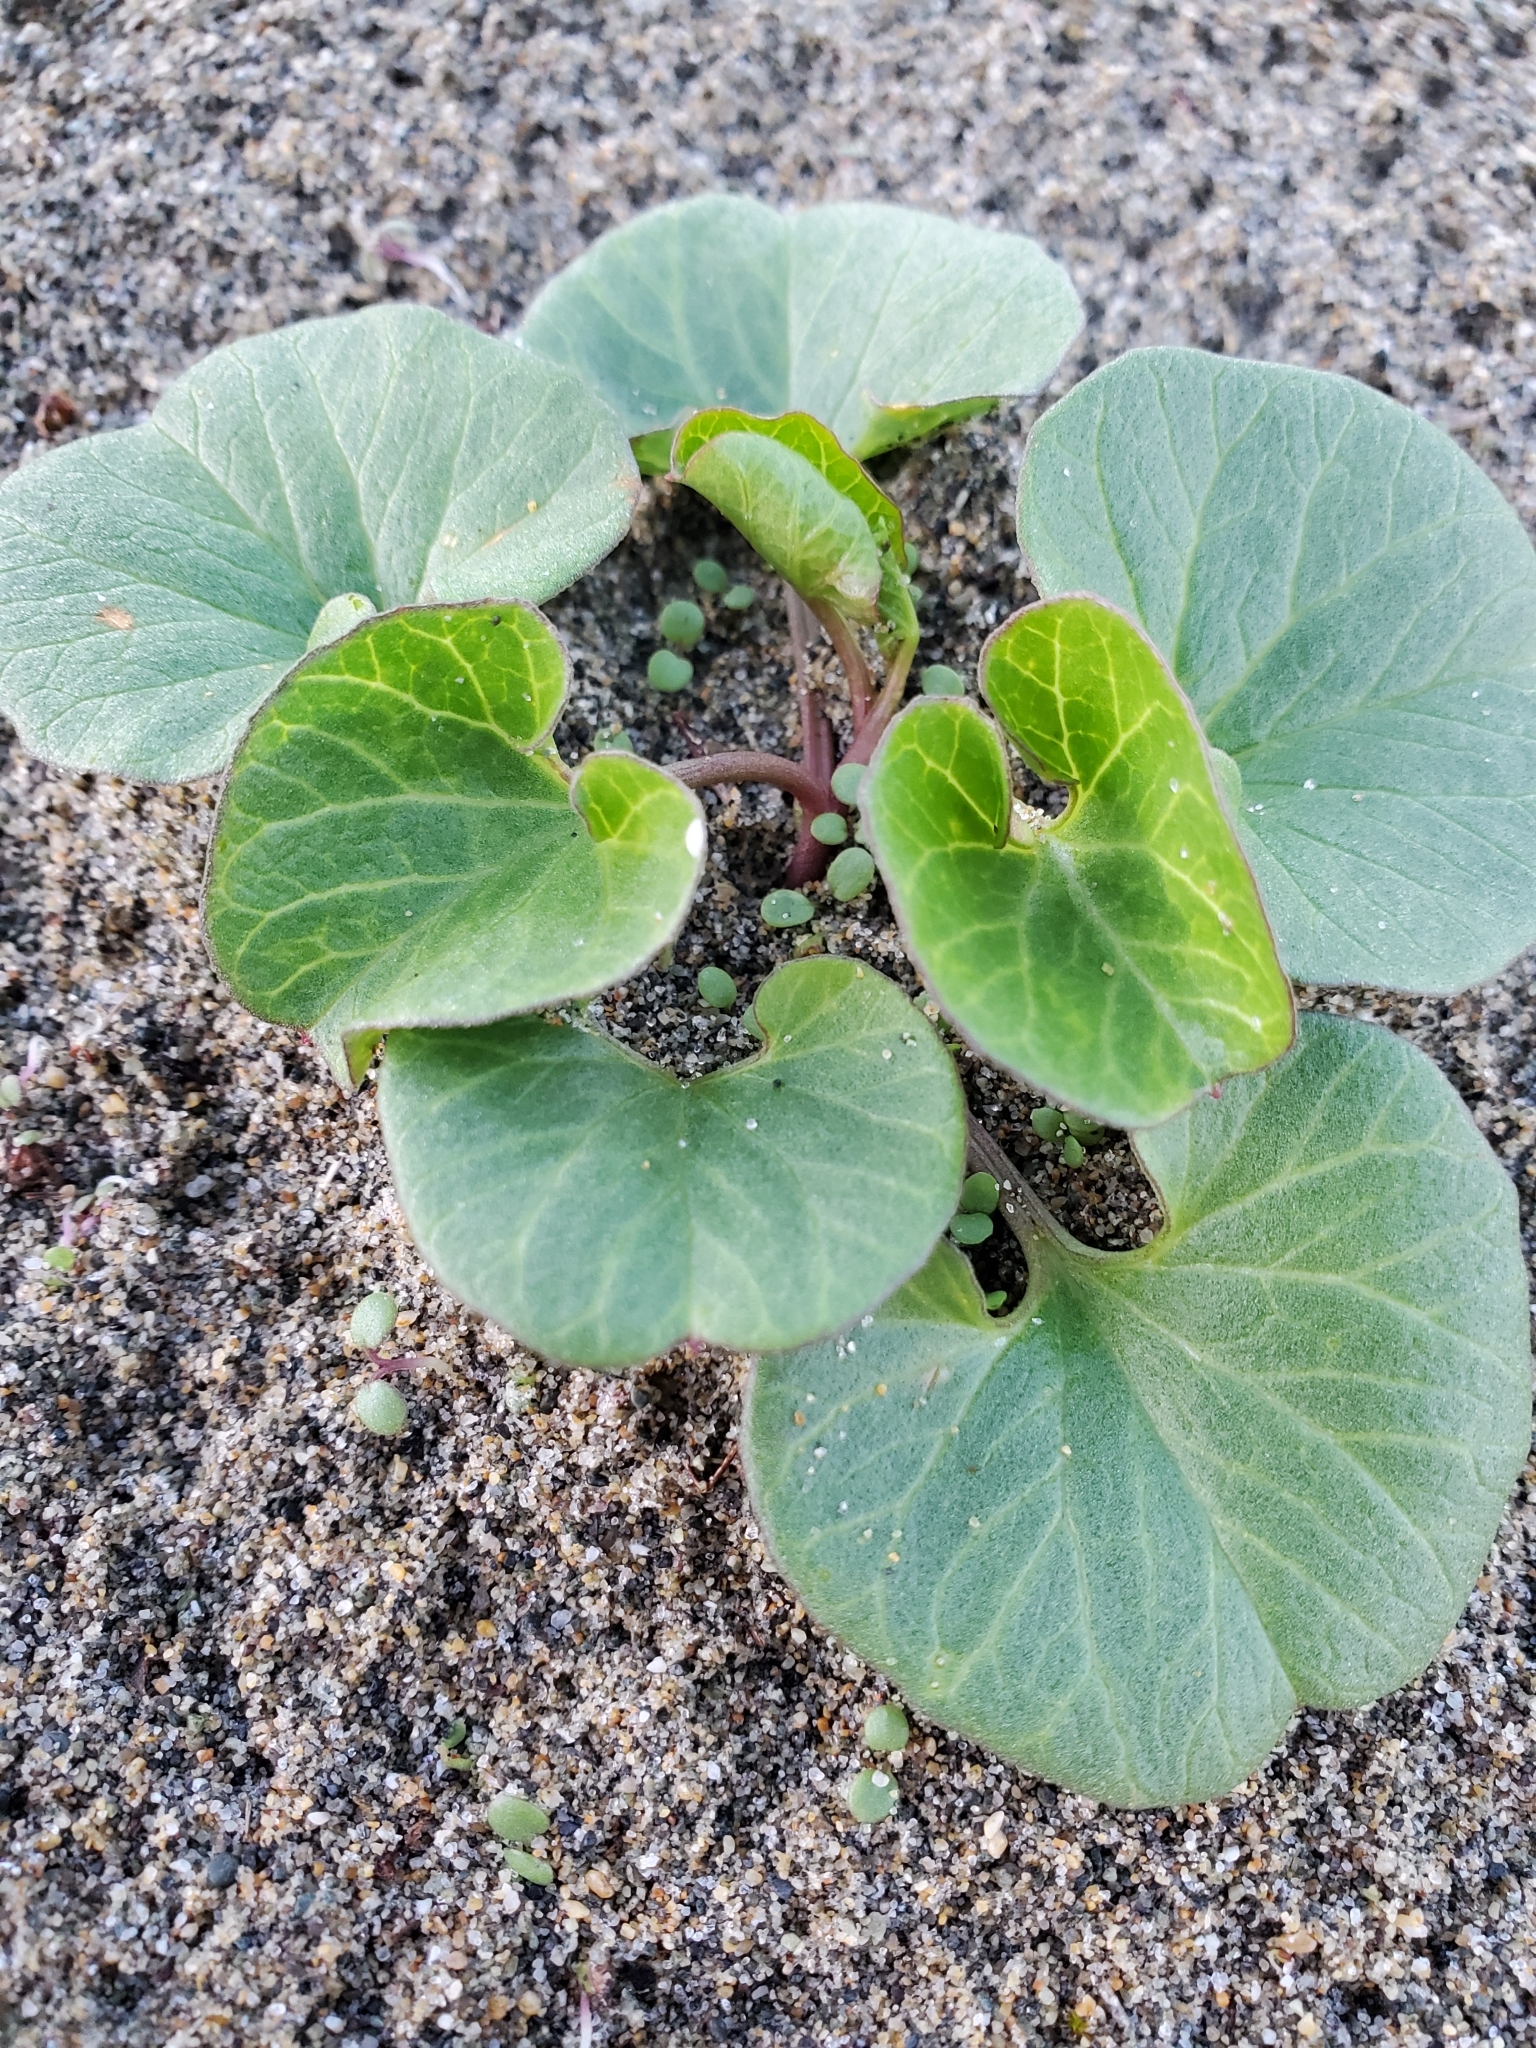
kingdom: Plantae
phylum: Tracheophyta
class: Magnoliopsida
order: Solanales
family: Convolvulaceae
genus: Calystegia
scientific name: Calystegia soldanella
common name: Sea bindweed
